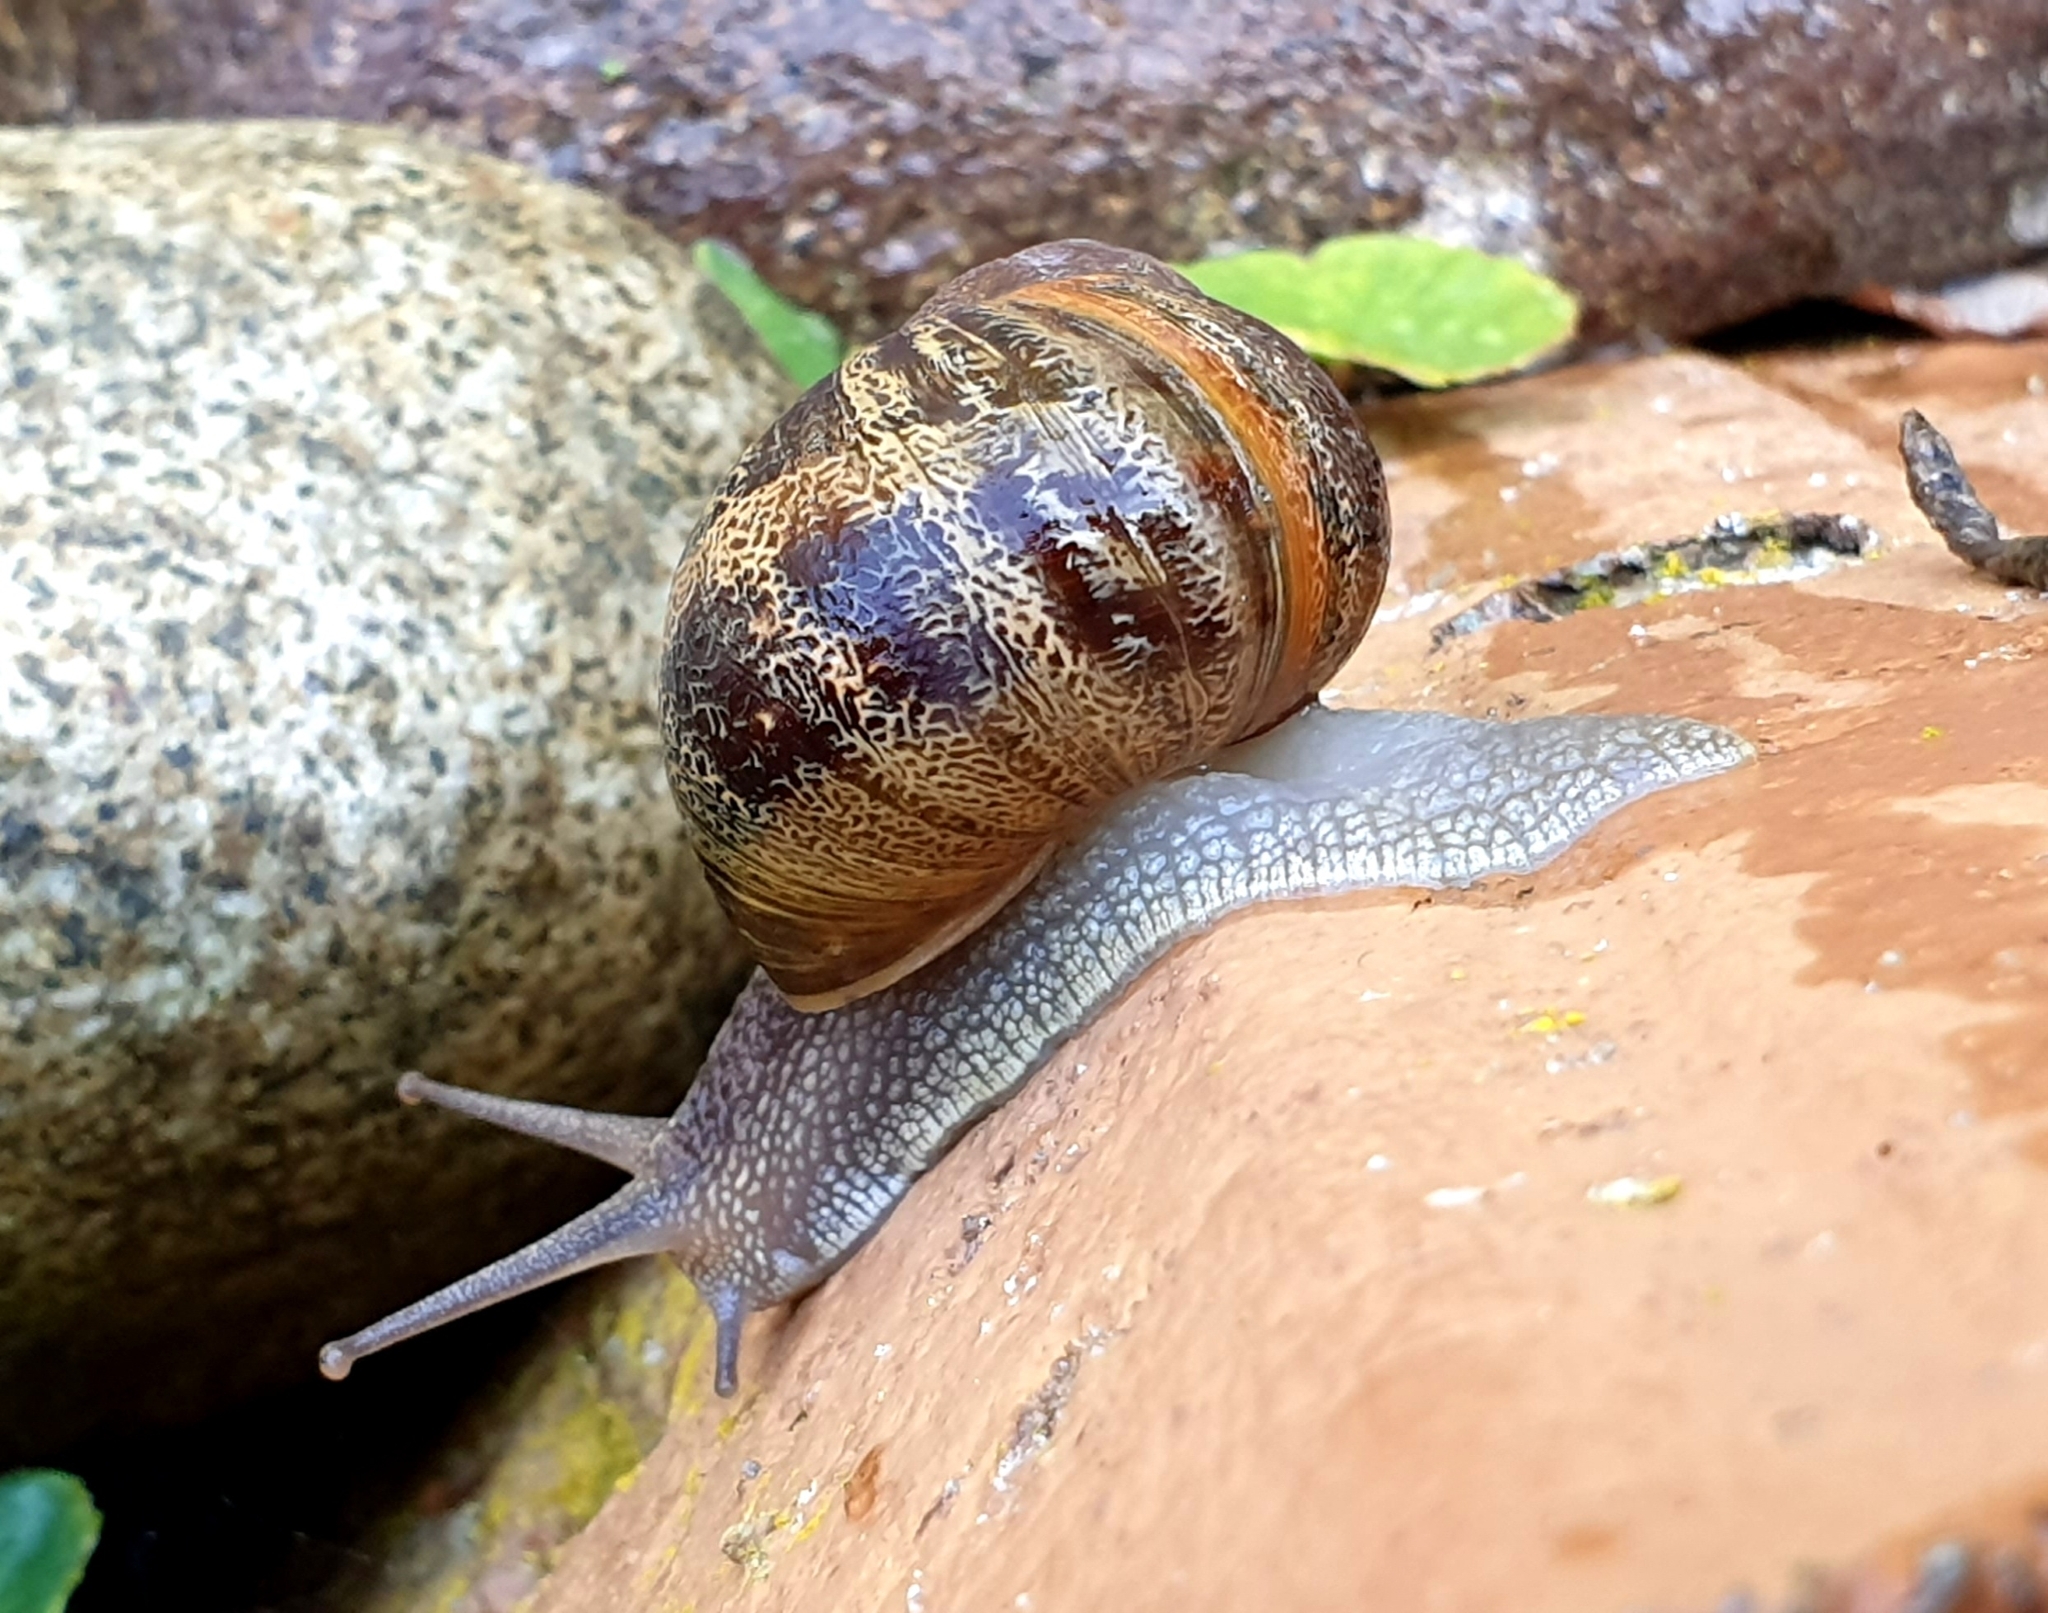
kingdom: Animalia
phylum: Mollusca
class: Gastropoda
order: Stylommatophora
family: Helicidae
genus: Cornu
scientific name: Cornu aspersum
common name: Brown garden snail
